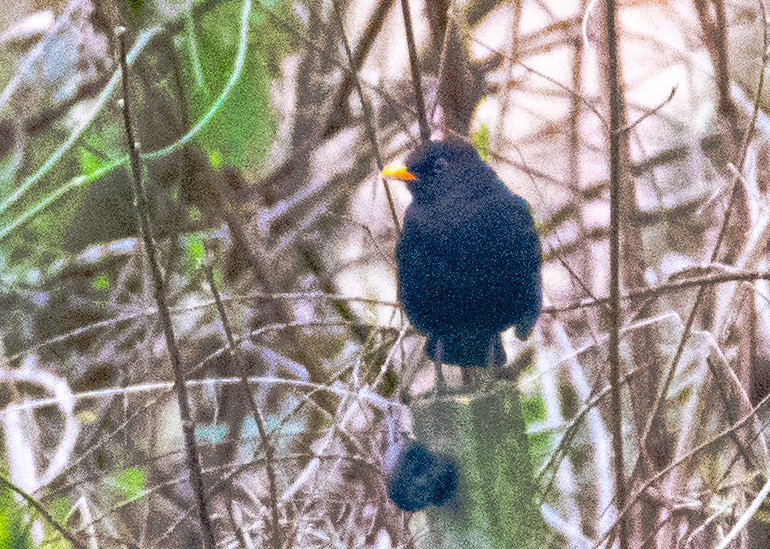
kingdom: Animalia
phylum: Chordata
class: Aves
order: Passeriformes
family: Turdidae
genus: Turdus
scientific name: Turdus merula
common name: Common blackbird
